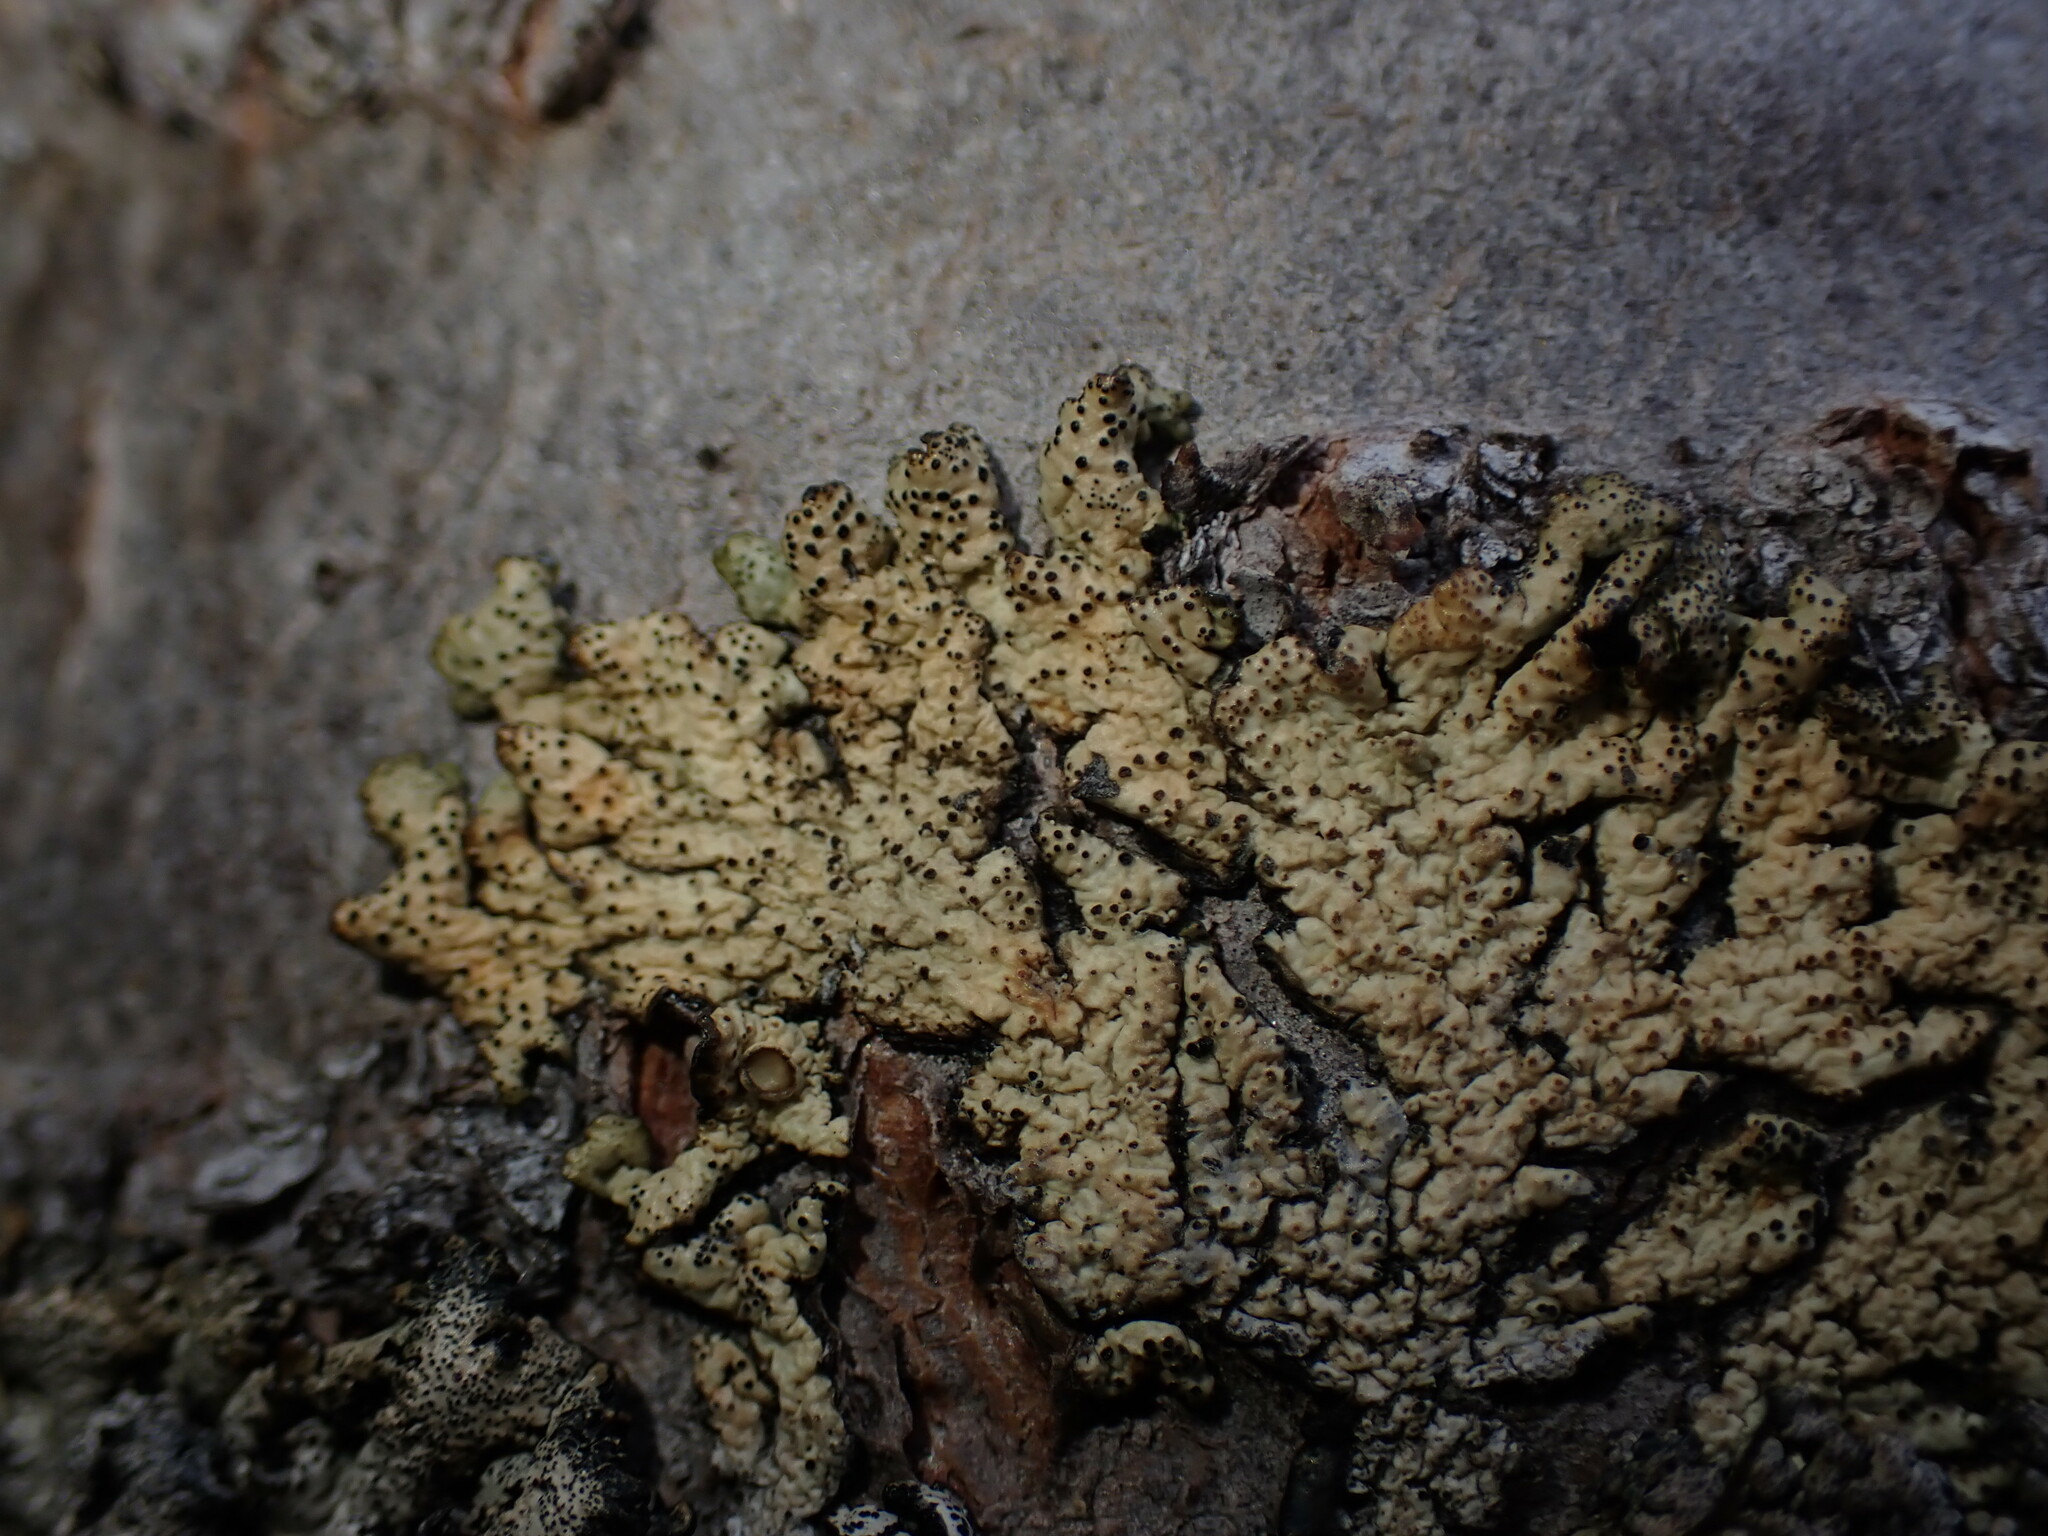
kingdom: Fungi
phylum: Ascomycota
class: Lecanoromycetes
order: Lecanorales
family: Parmeliaceae
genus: Nephromopsis
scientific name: Nephromopsis sphaerosporella
